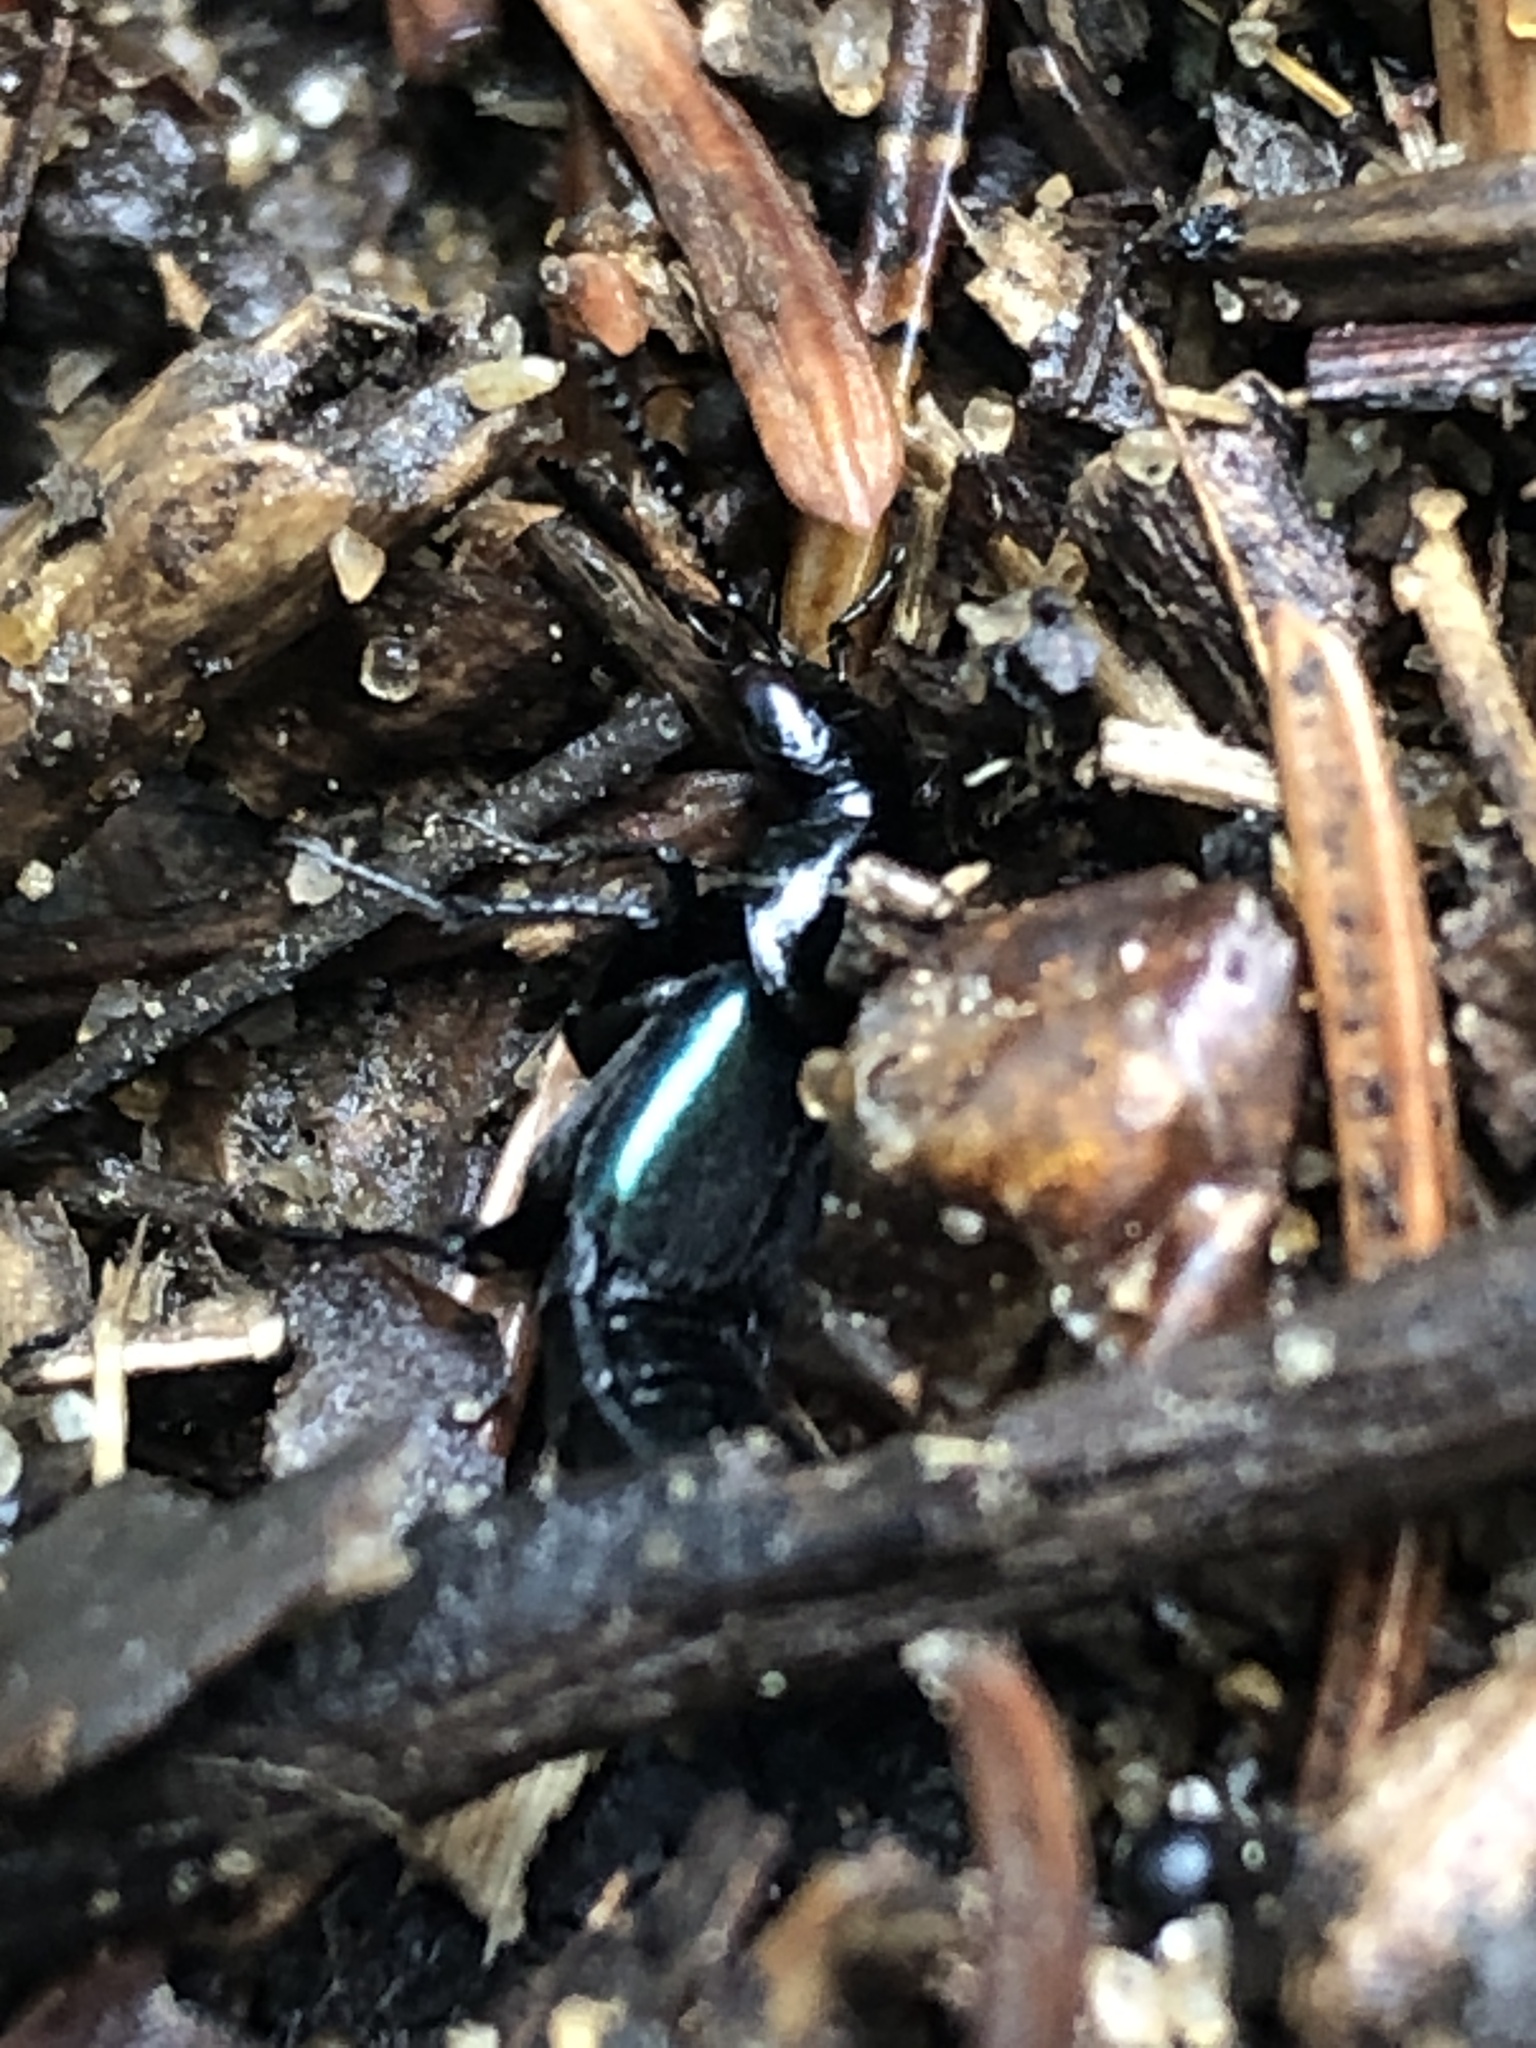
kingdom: Animalia
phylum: Arthropoda
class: Insecta
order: Coleoptera
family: Staphylinidae
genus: Philonthus
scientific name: Philonthus caeruleipennis
